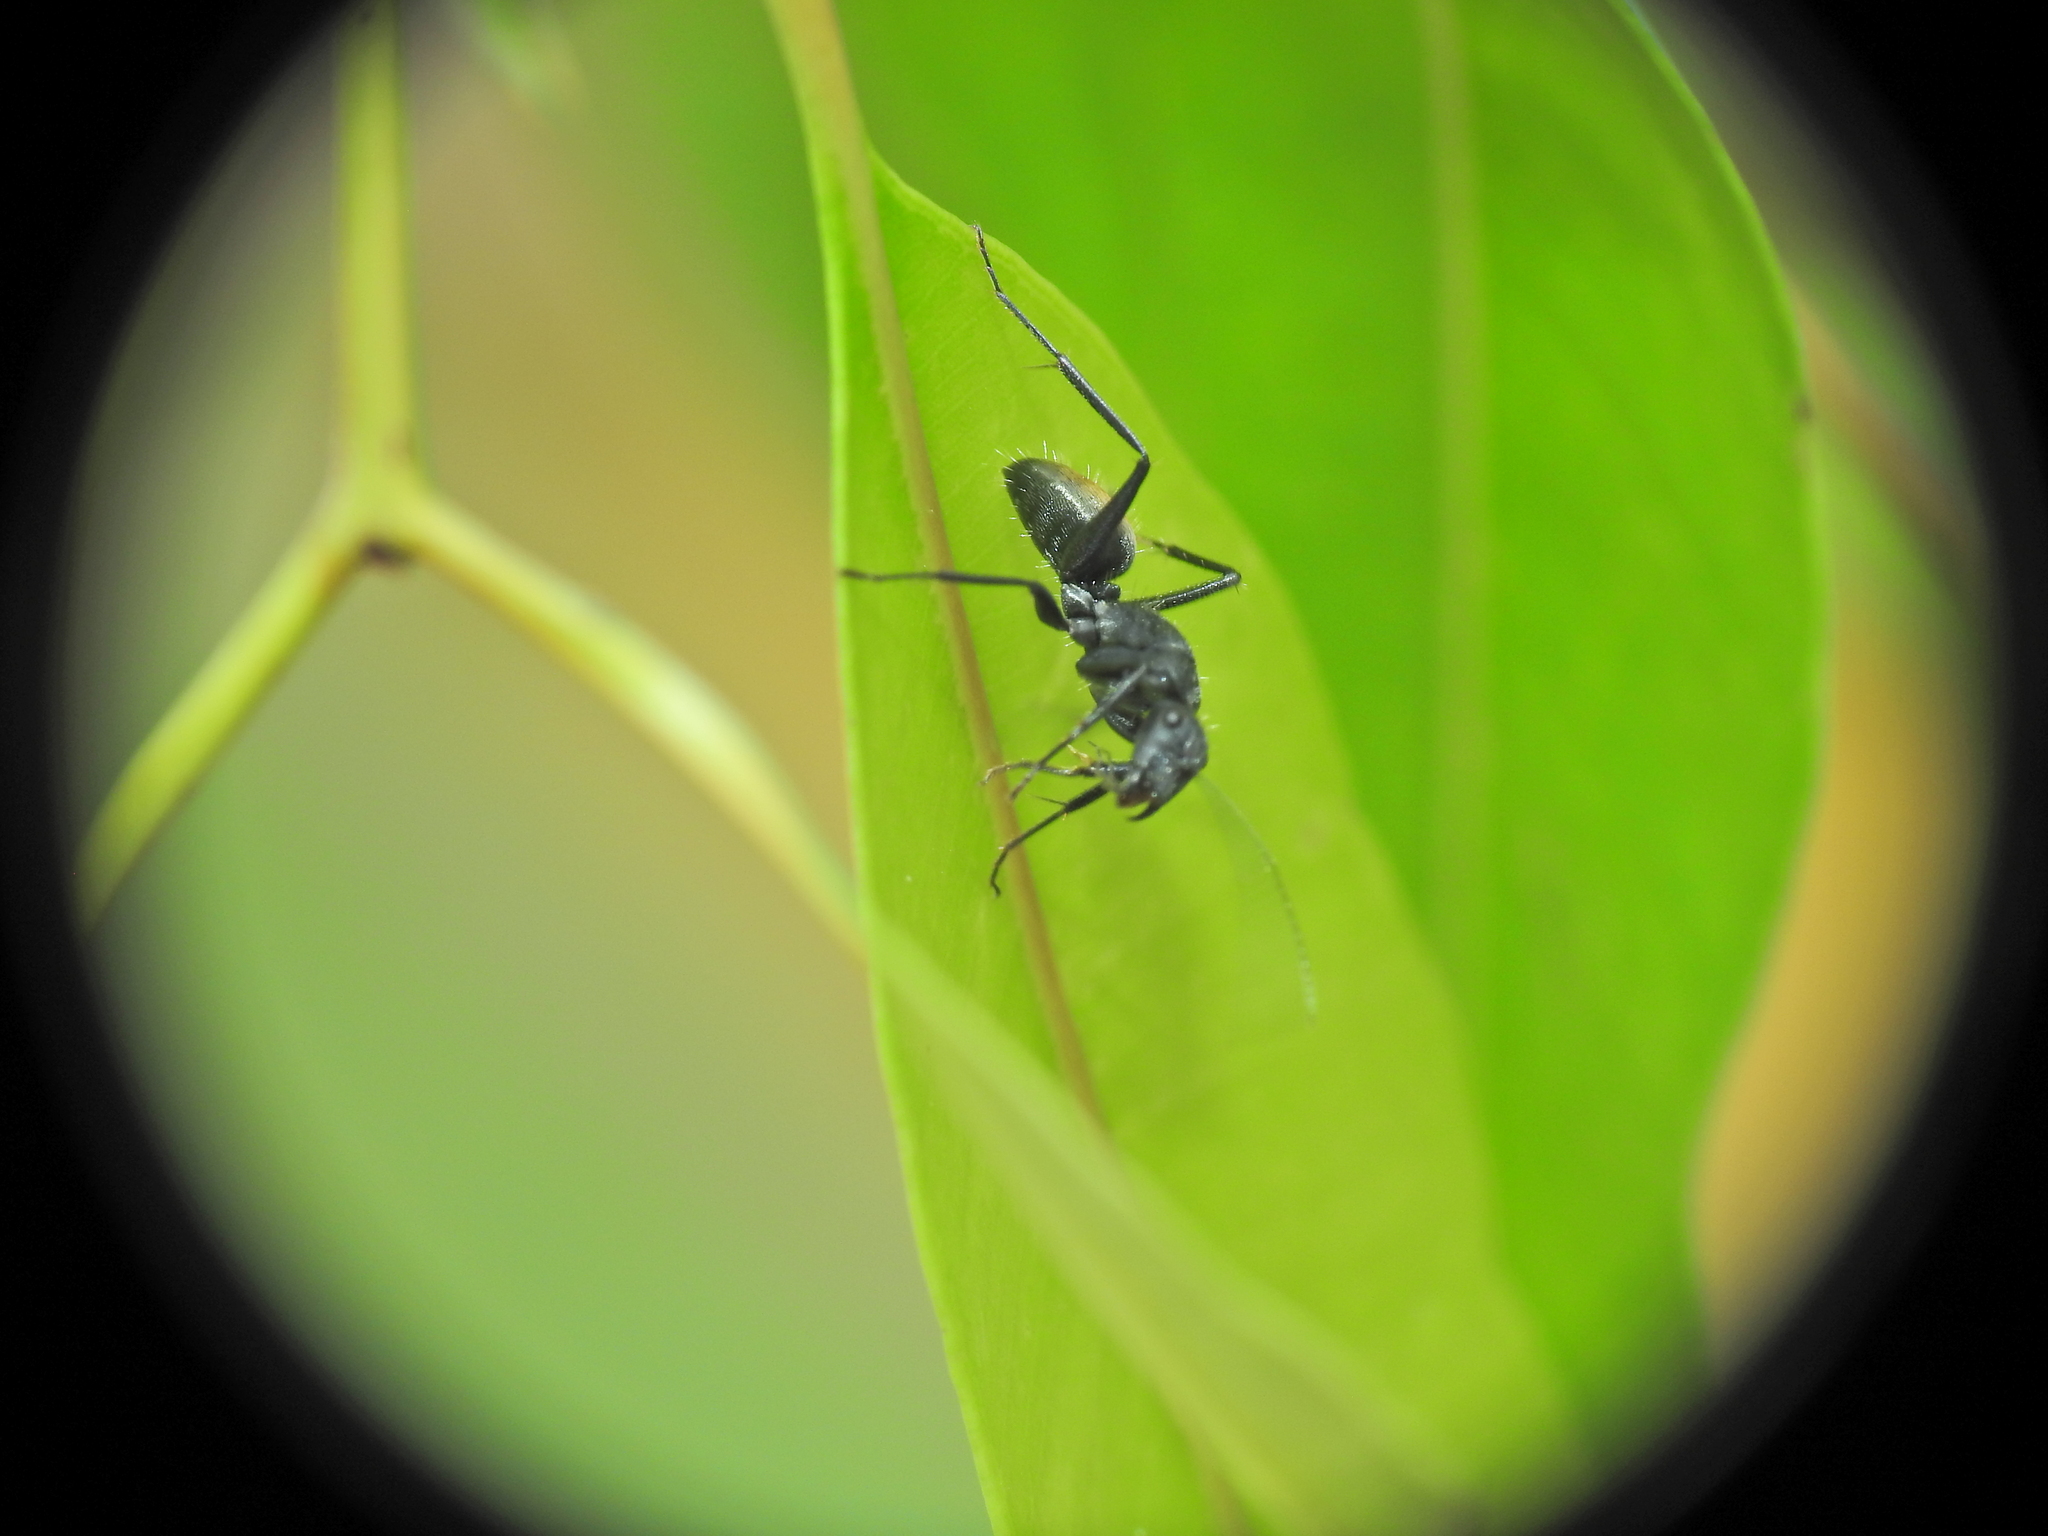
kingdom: Animalia
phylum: Arthropoda
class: Insecta
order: Hymenoptera
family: Formicidae
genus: Camponotus
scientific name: Camponotus aeneopilosus
